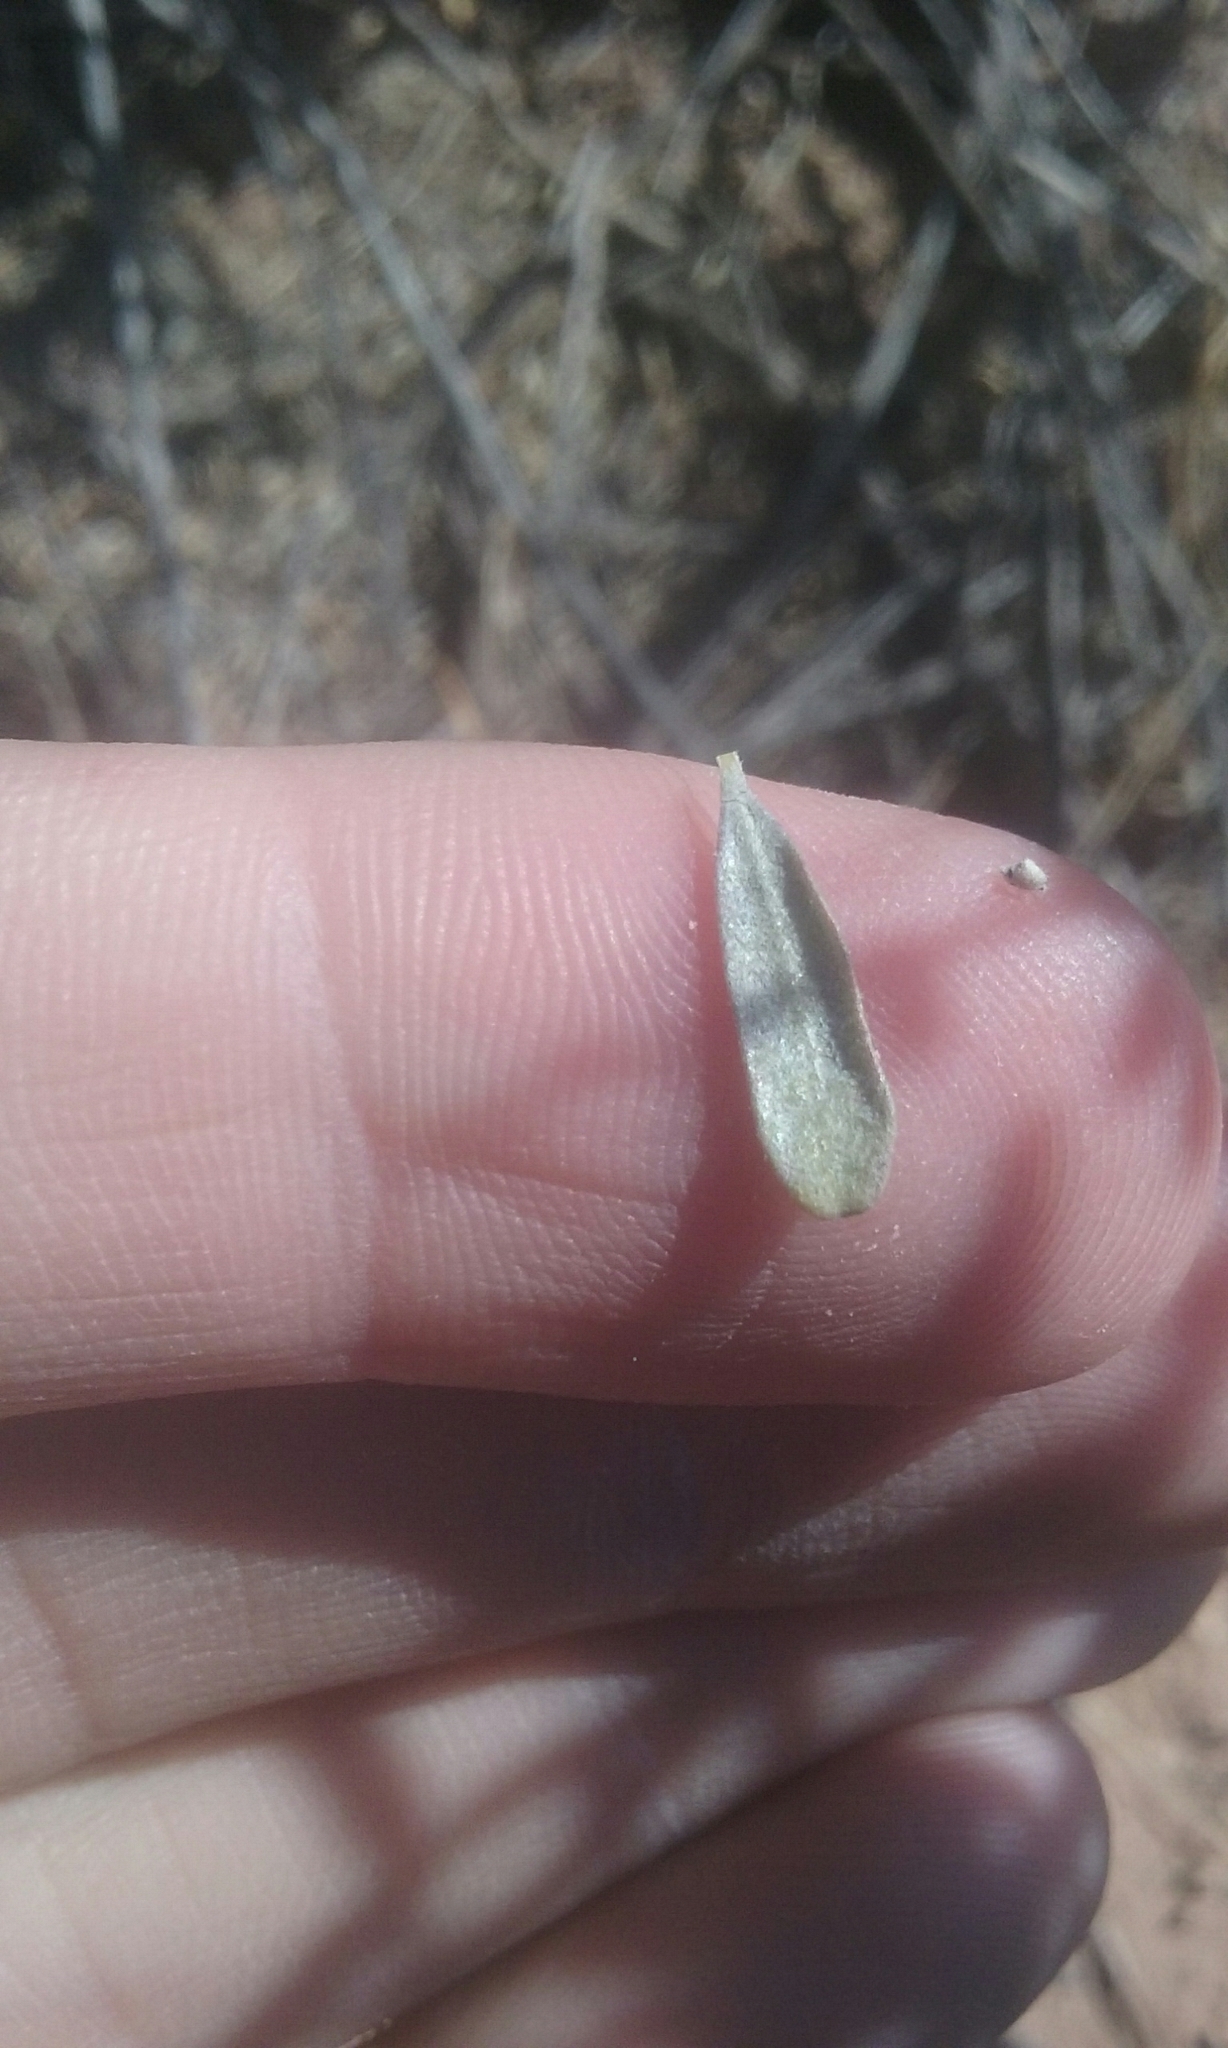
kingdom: Plantae
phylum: Tracheophyta
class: Magnoliopsida
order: Caryophyllales
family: Amaranthaceae
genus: Atriplex
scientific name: Atriplex canescens
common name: Four-wing saltbush
